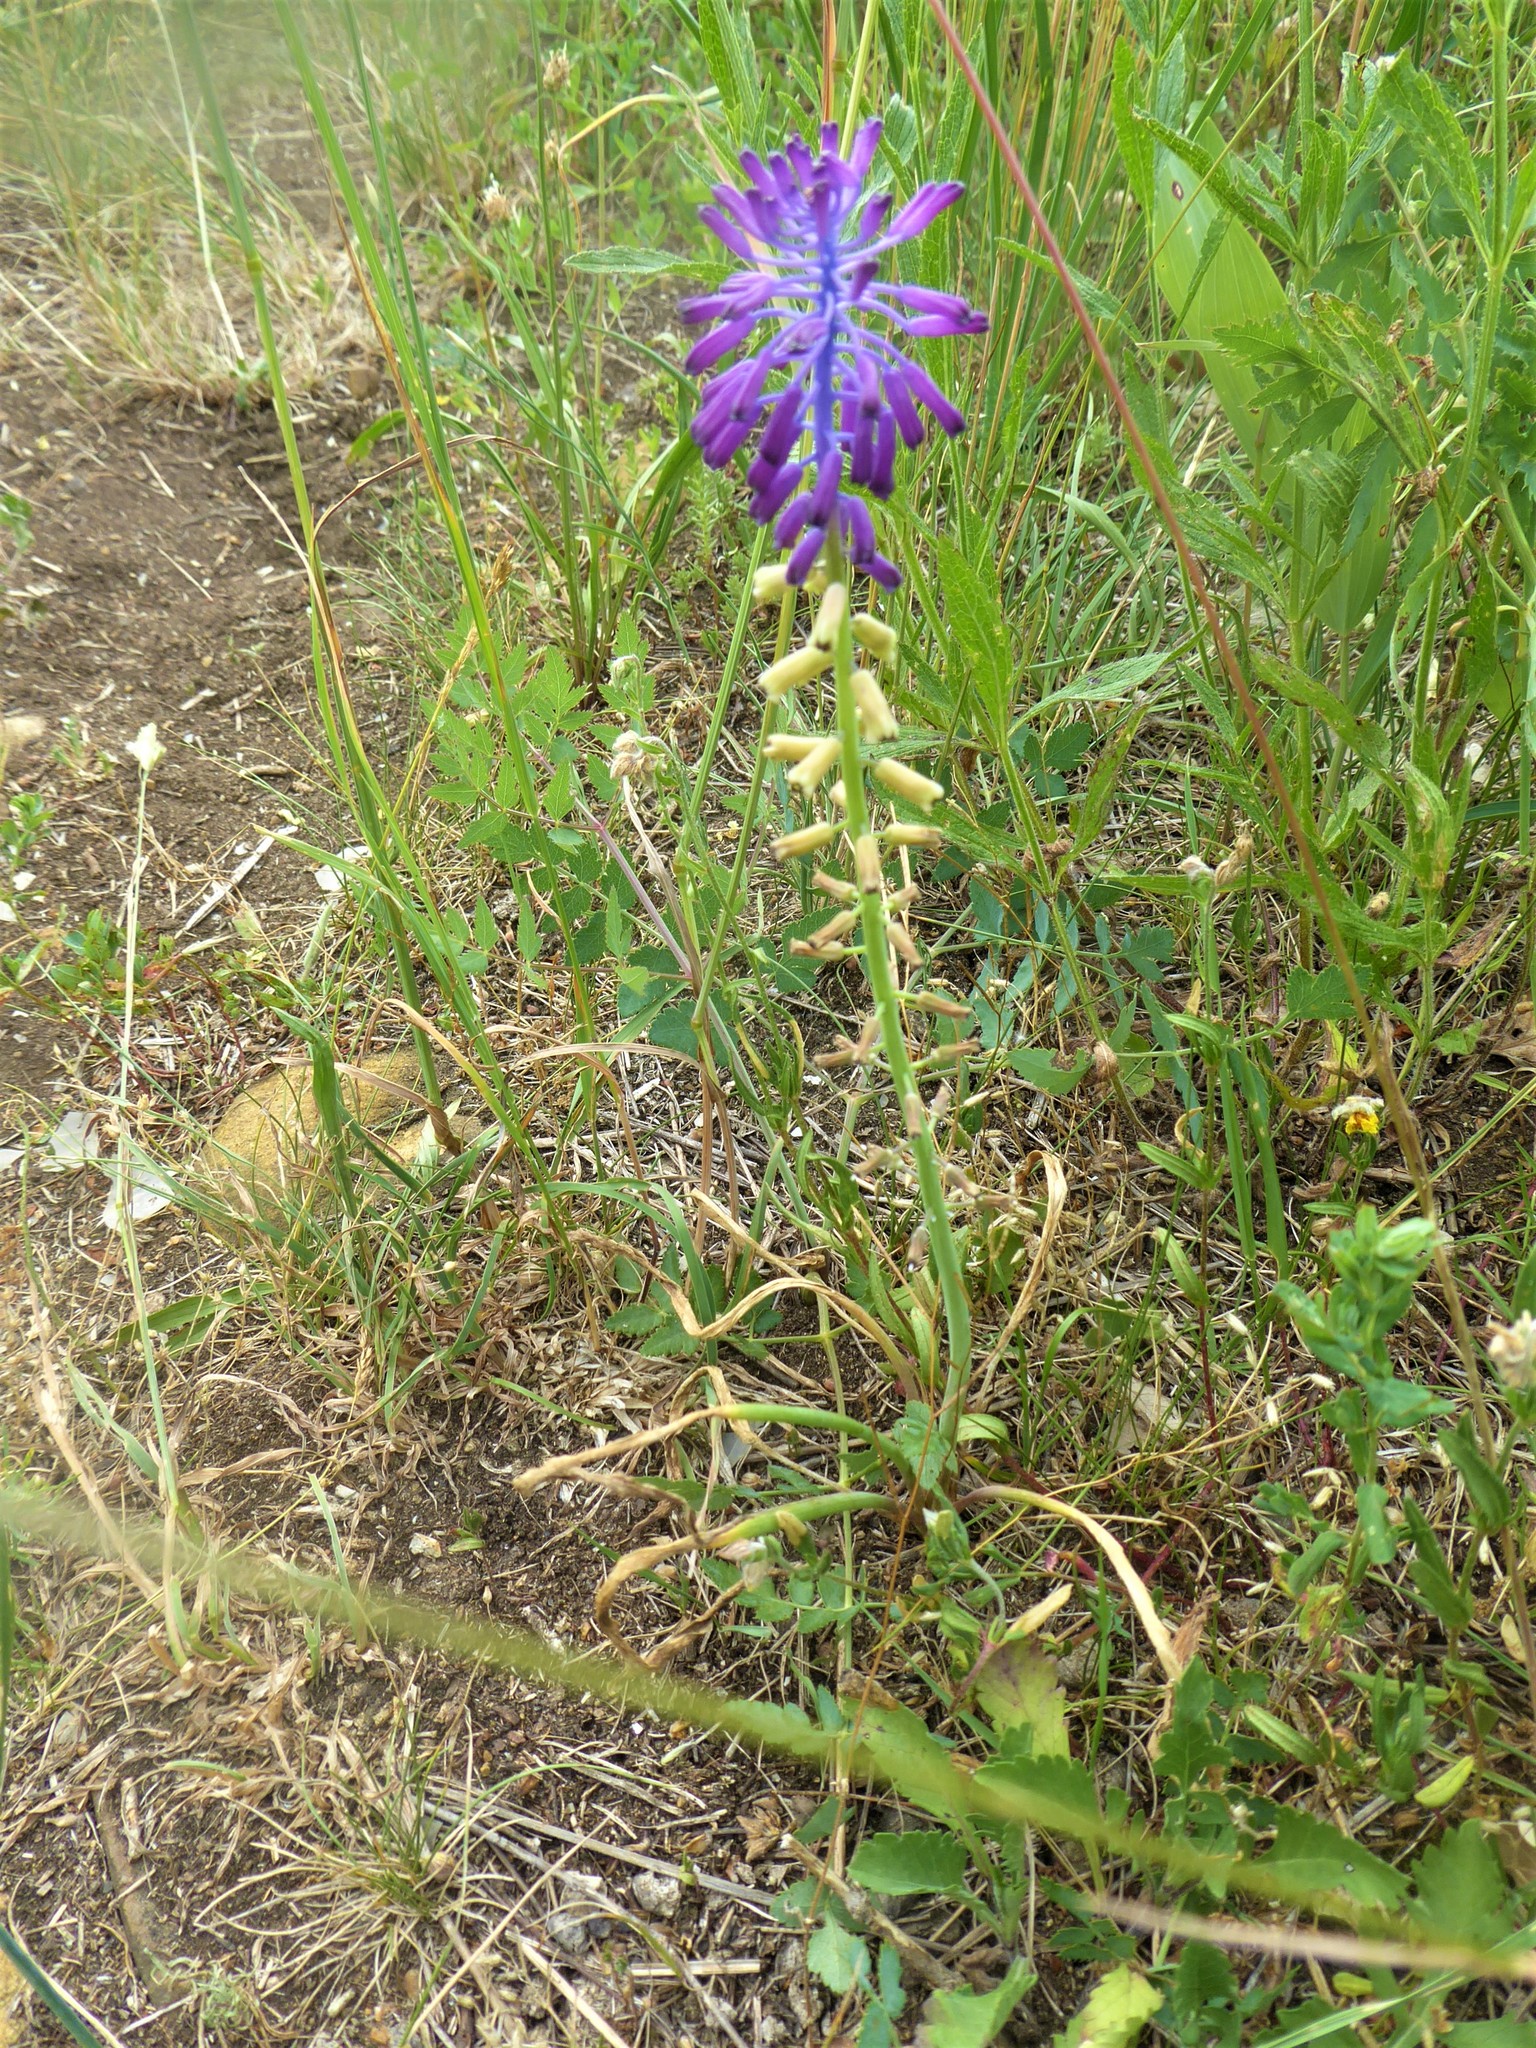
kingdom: Plantae
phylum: Tracheophyta
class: Liliopsida
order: Asparagales
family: Asparagaceae
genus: Muscari
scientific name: Muscari tenuiflorum
